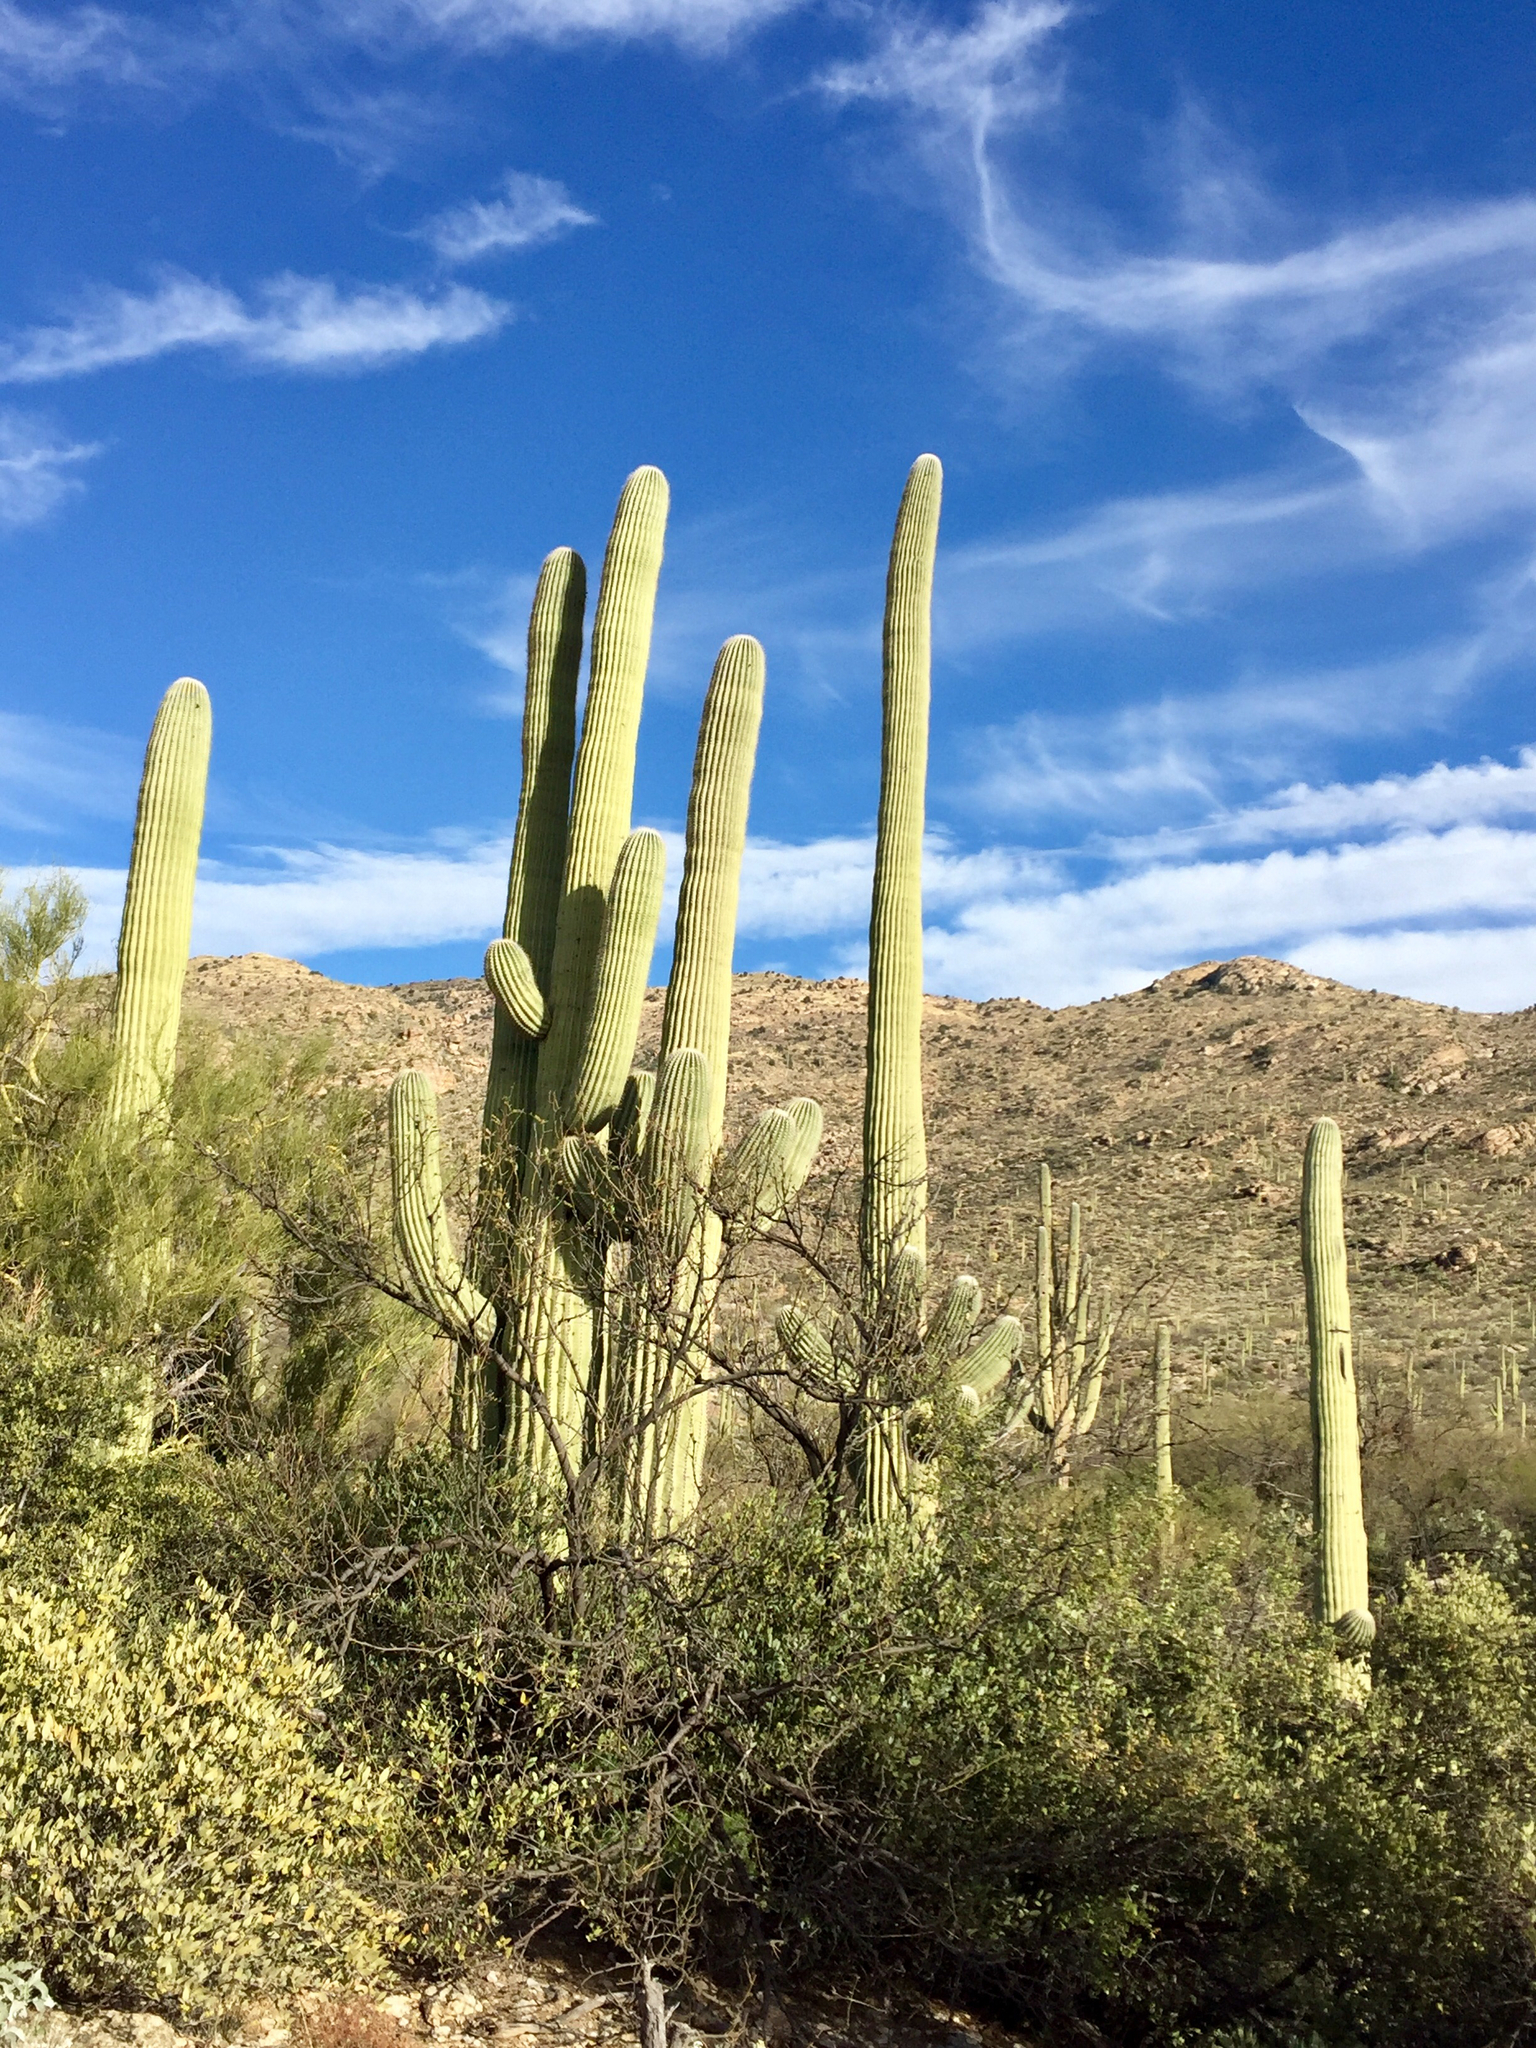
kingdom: Plantae
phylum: Tracheophyta
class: Magnoliopsida
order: Caryophyllales
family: Cactaceae
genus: Carnegiea
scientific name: Carnegiea gigantea
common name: Saguaro
